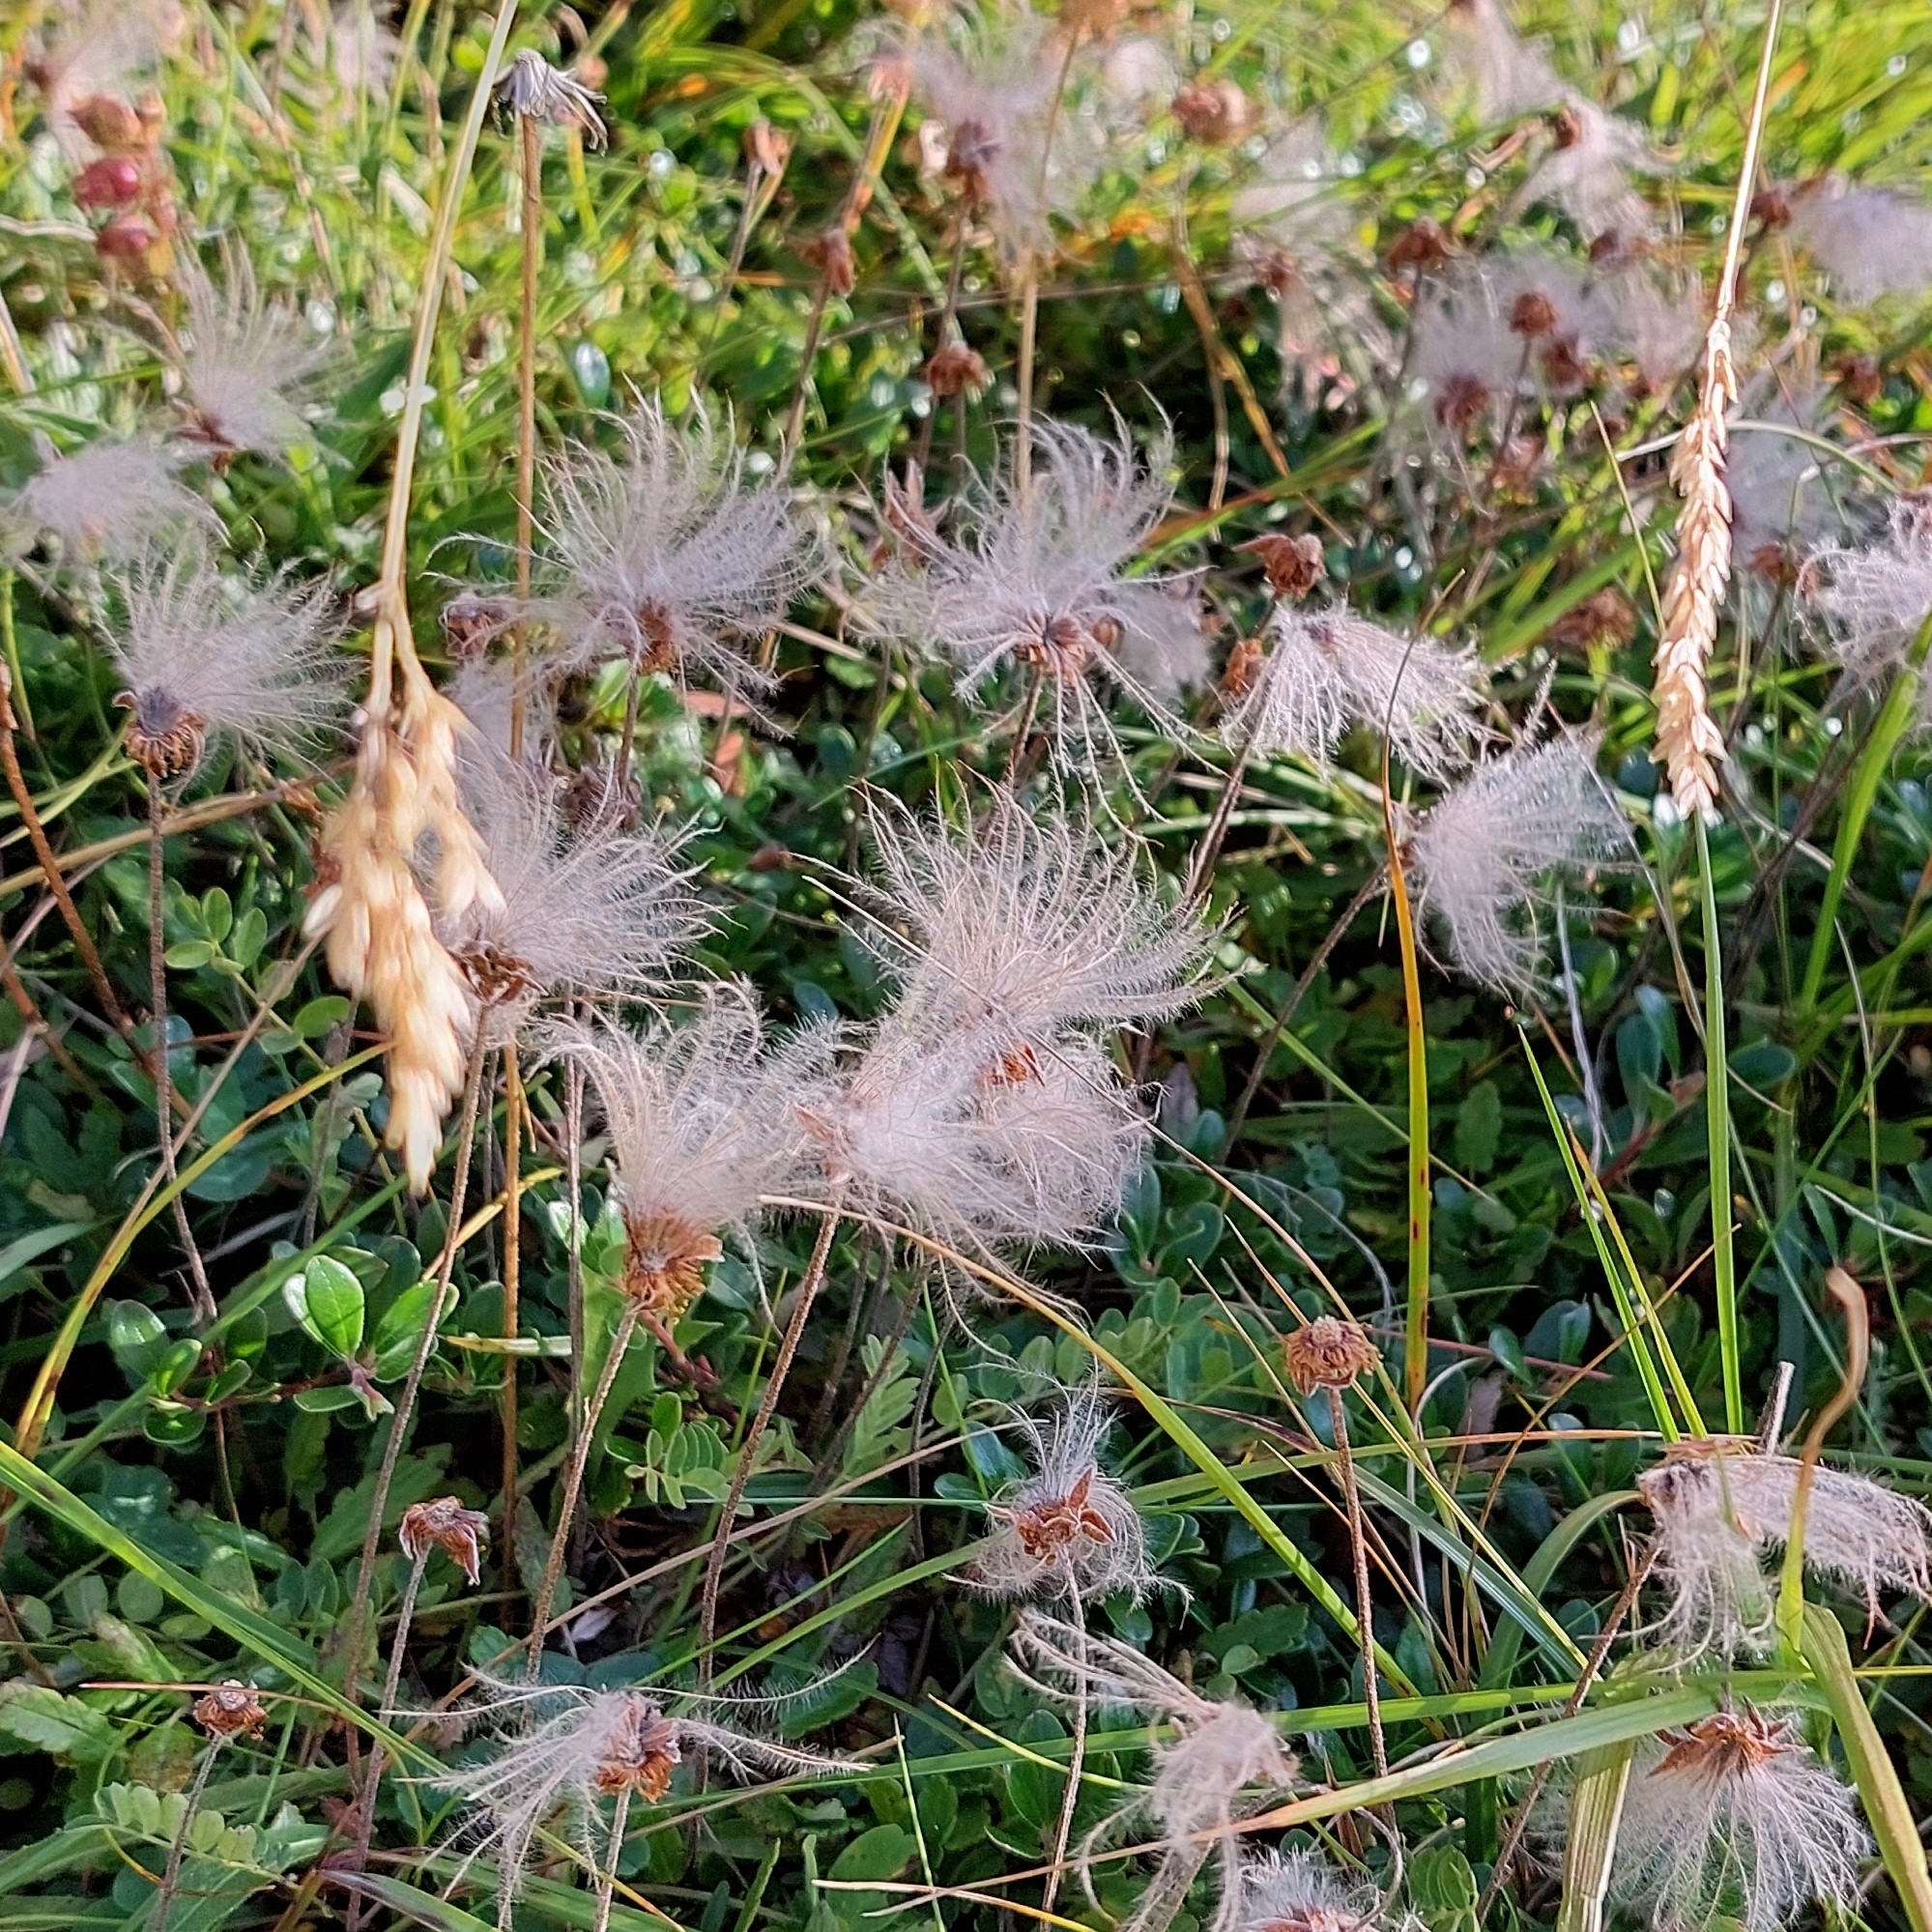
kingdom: Plantae
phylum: Tracheophyta
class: Magnoliopsida
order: Rosales
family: Rosaceae
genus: Dryas
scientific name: Dryas octopetala
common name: Eight-petal mountain-avens
